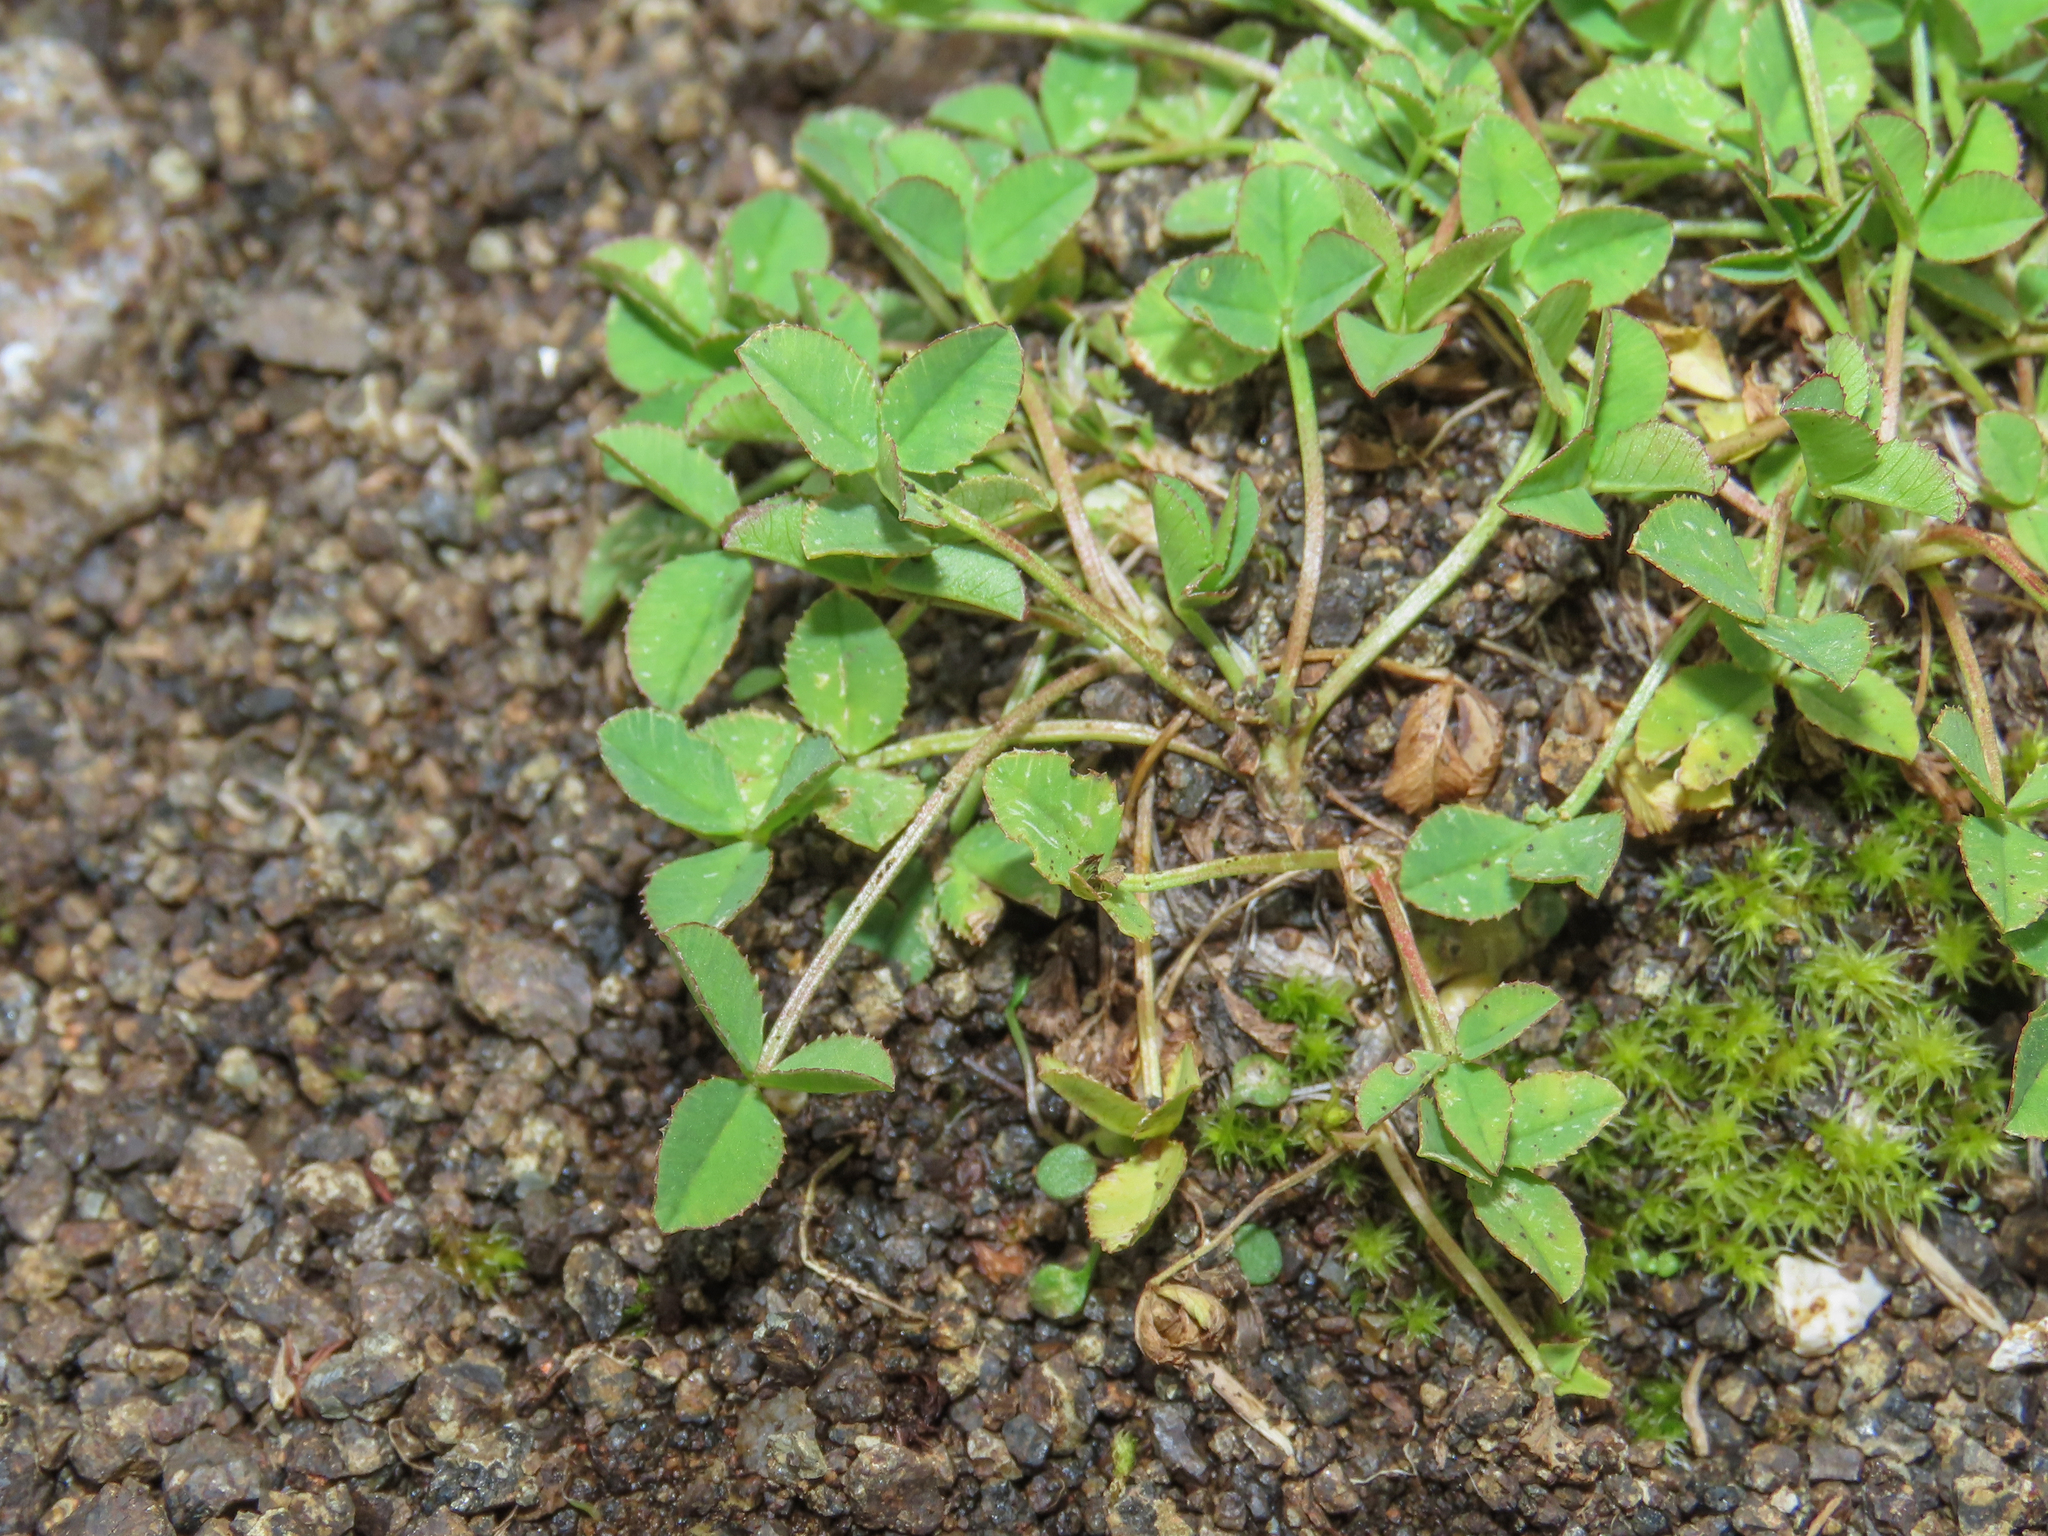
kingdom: Plantae
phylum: Tracheophyta
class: Magnoliopsida
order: Fabales
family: Fabaceae
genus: Trifolium
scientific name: Trifolium pallescens
